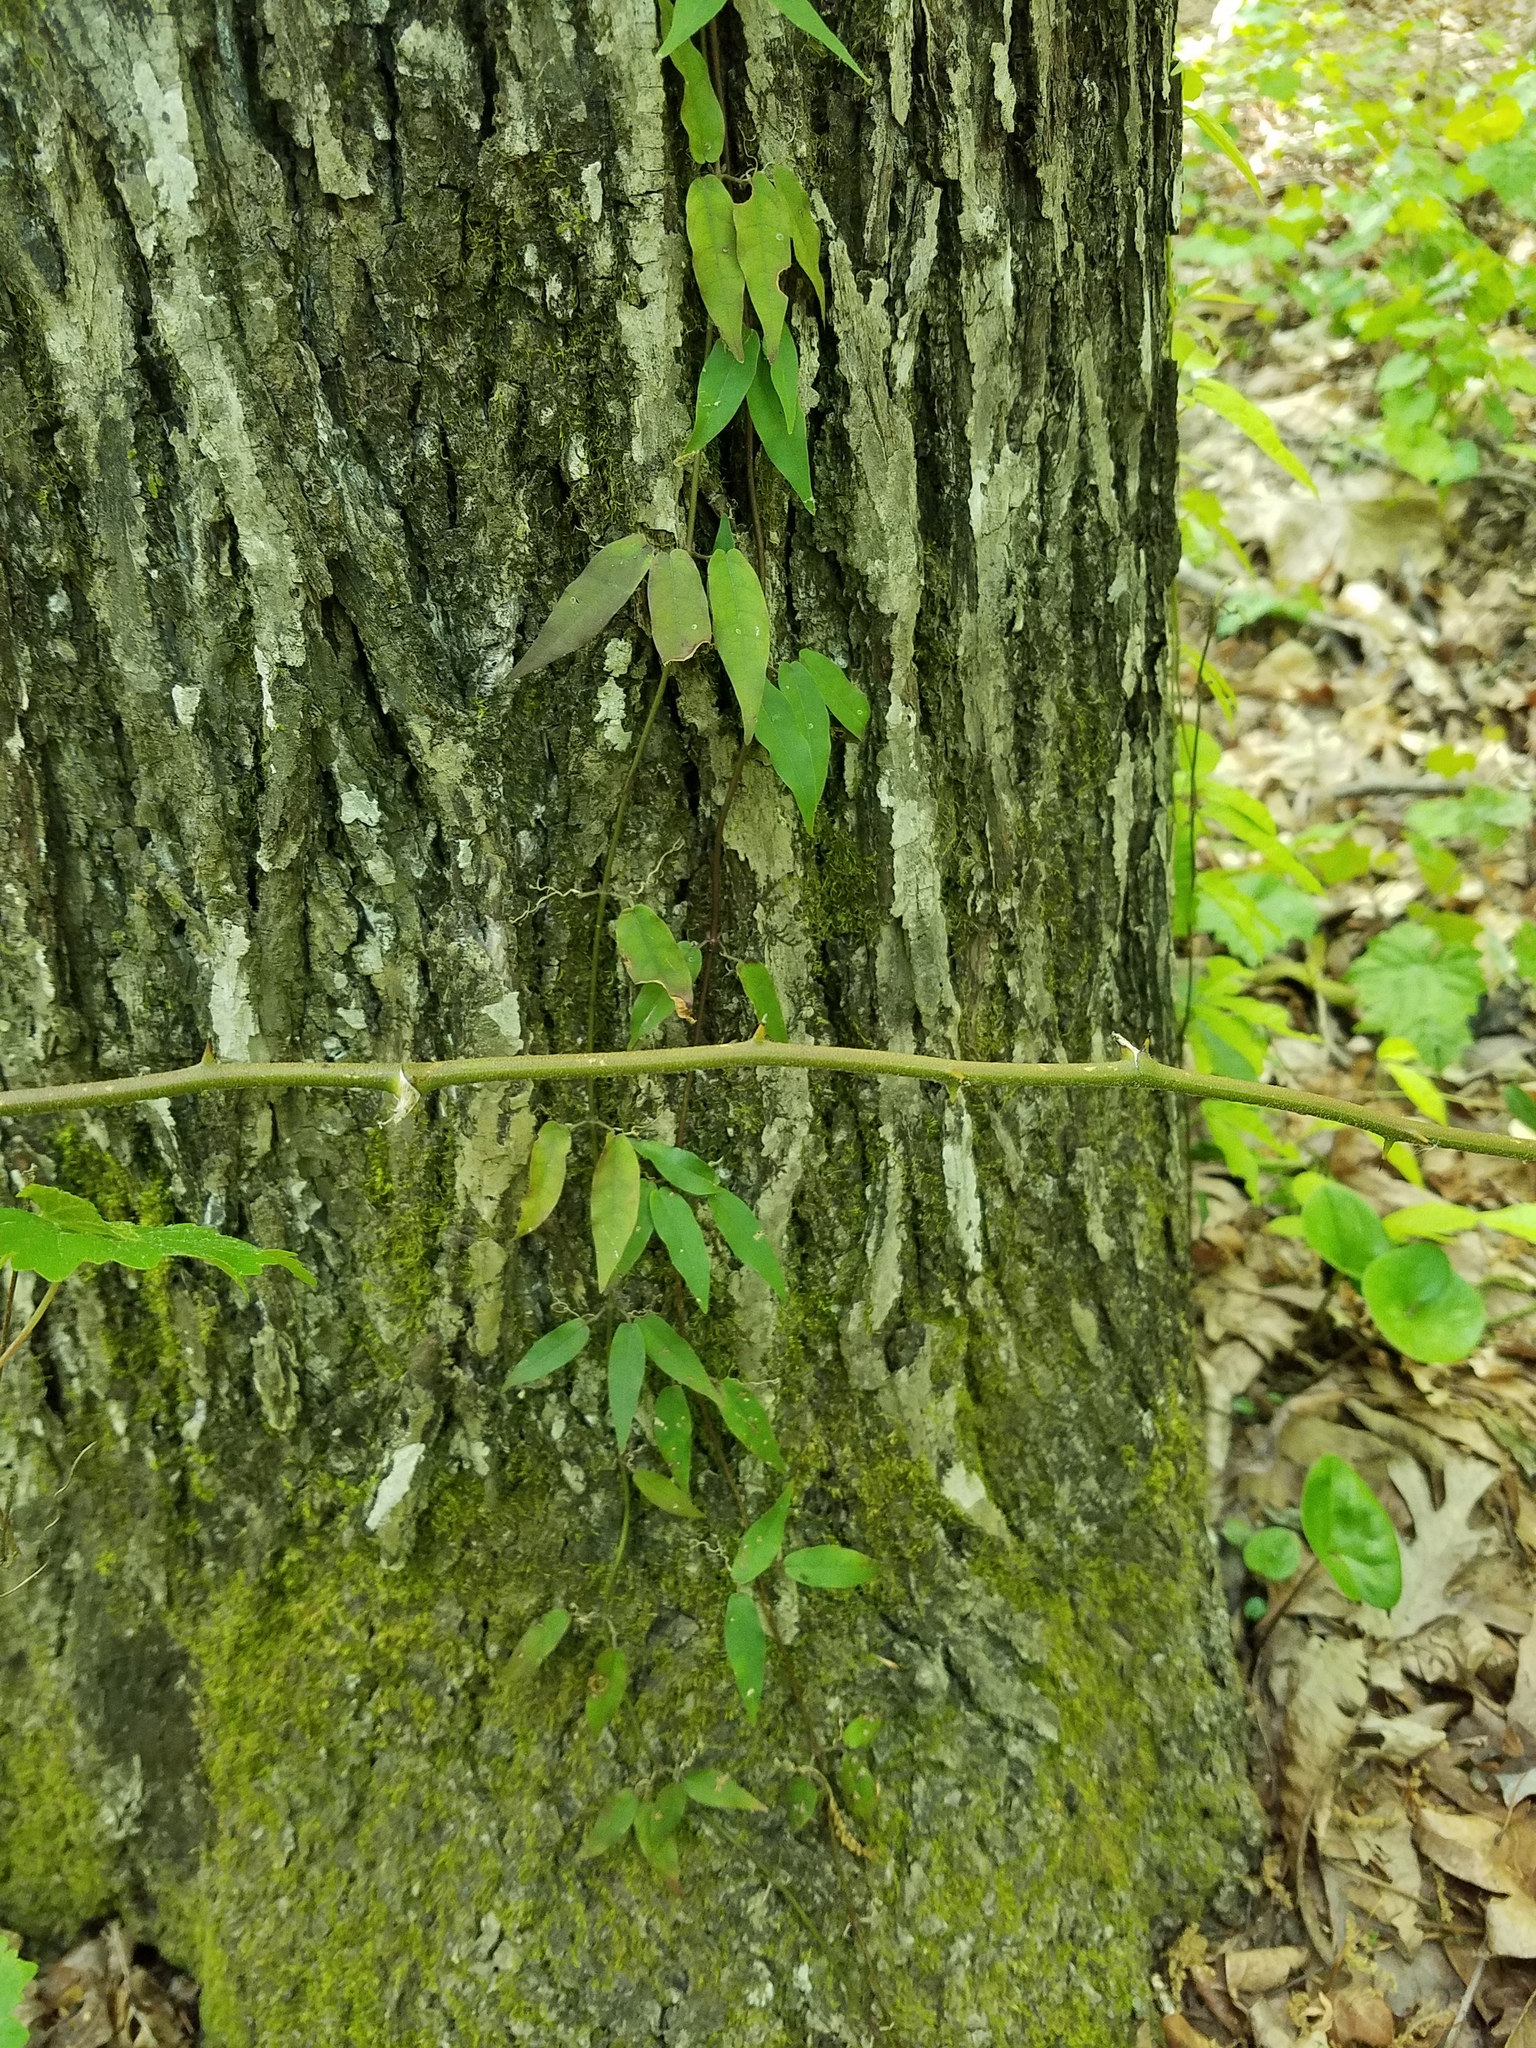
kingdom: Plantae
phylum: Tracheophyta
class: Magnoliopsida
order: Lamiales
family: Bignoniaceae
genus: Bignonia
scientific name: Bignonia capreolata
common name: Crossvine
